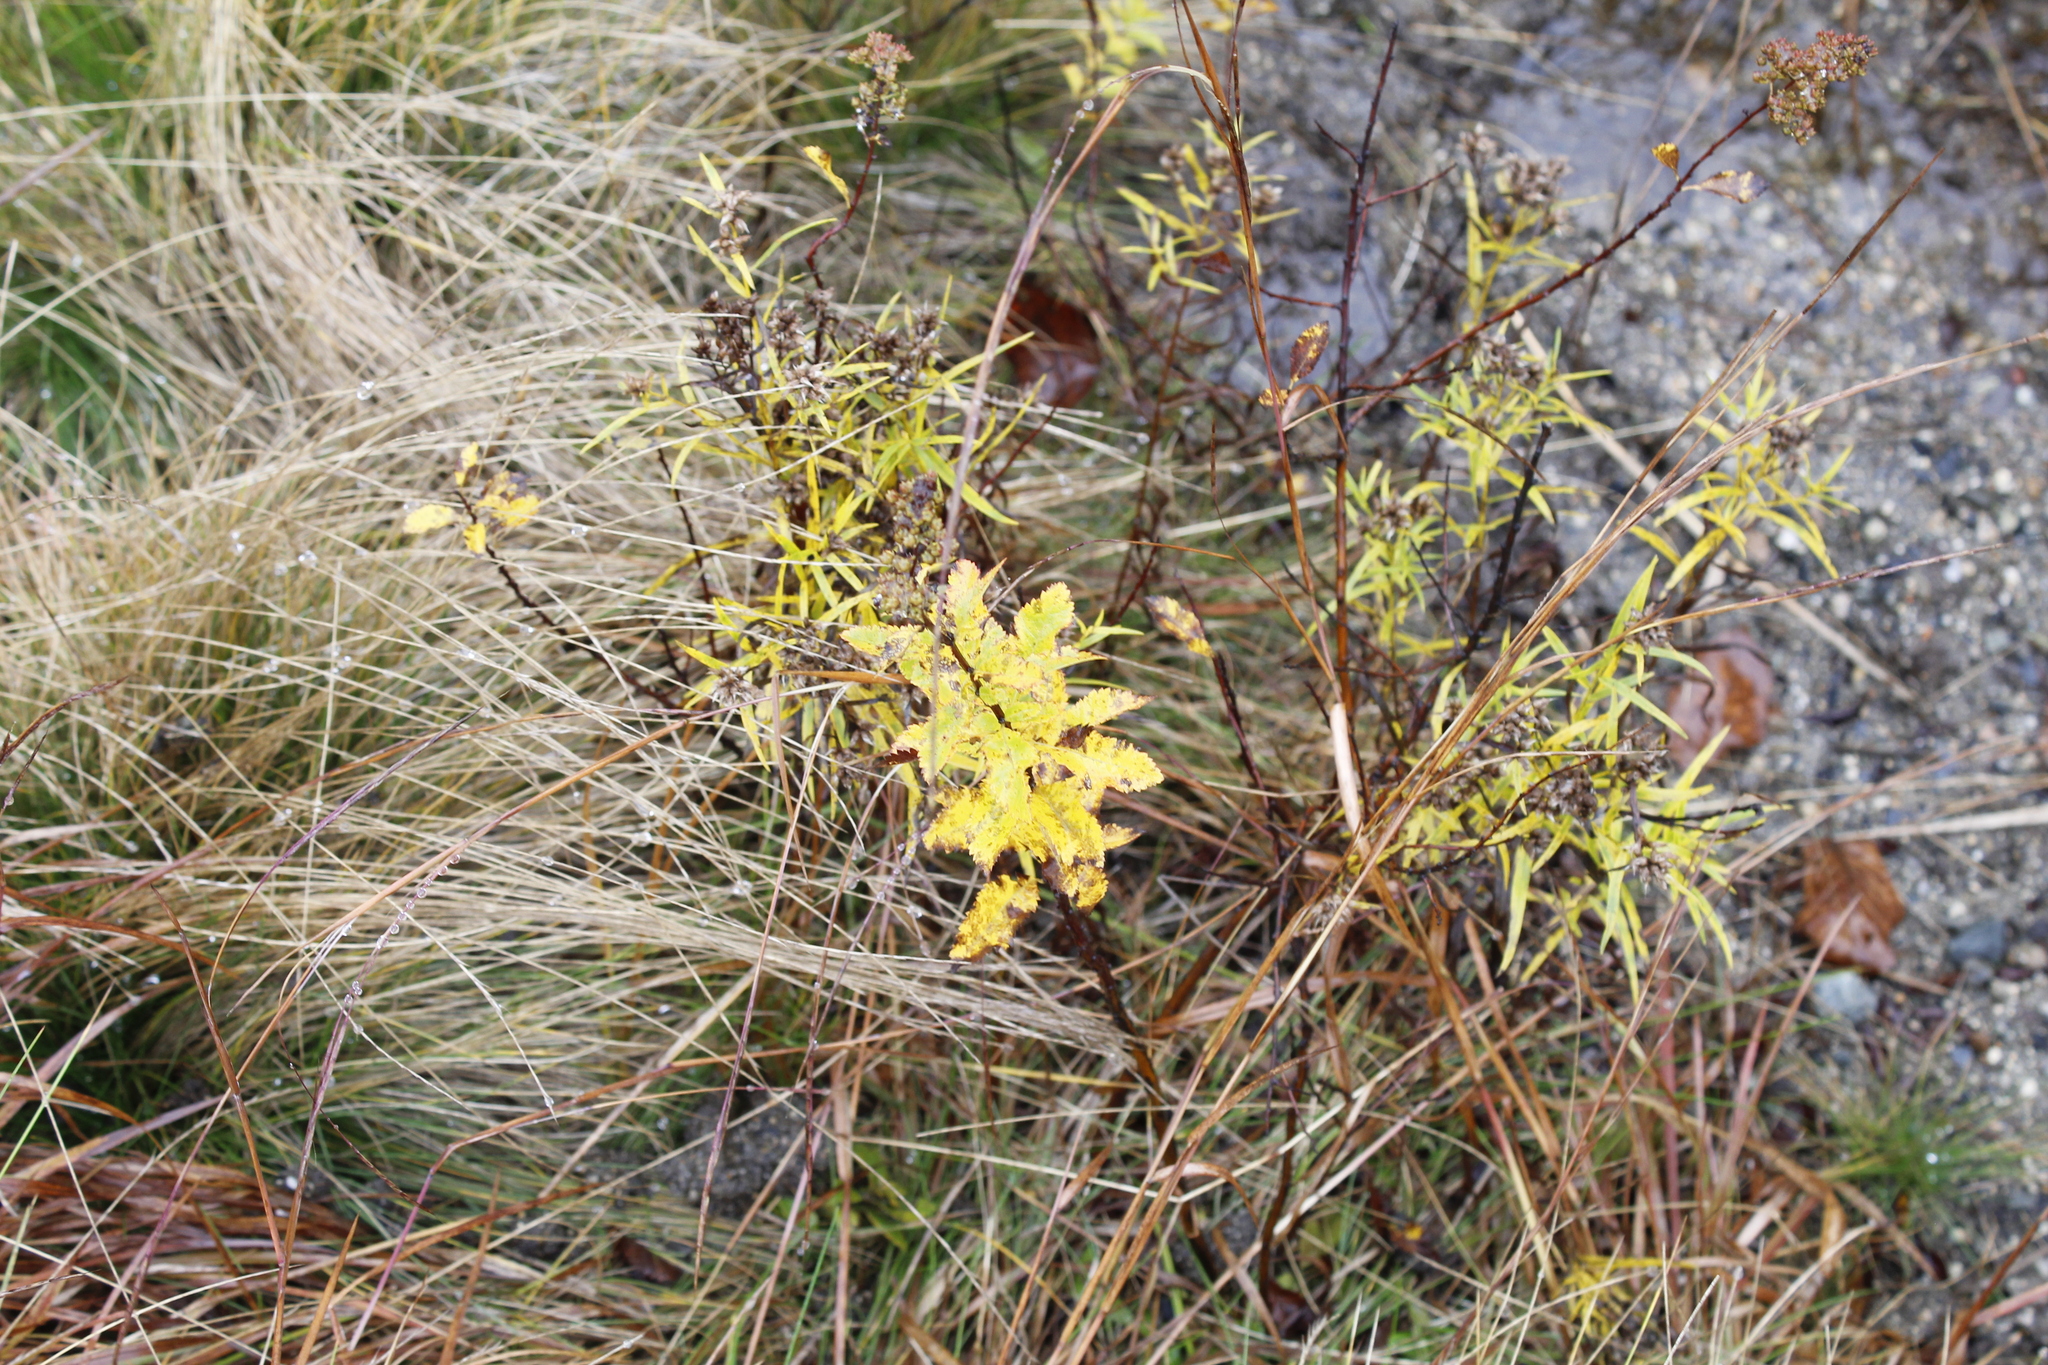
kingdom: Plantae
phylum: Tracheophyta
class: Magnoliopsida
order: Rosales
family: Rosaceae
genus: Spiraea
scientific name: Spiraea alba
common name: Pale bridewort
